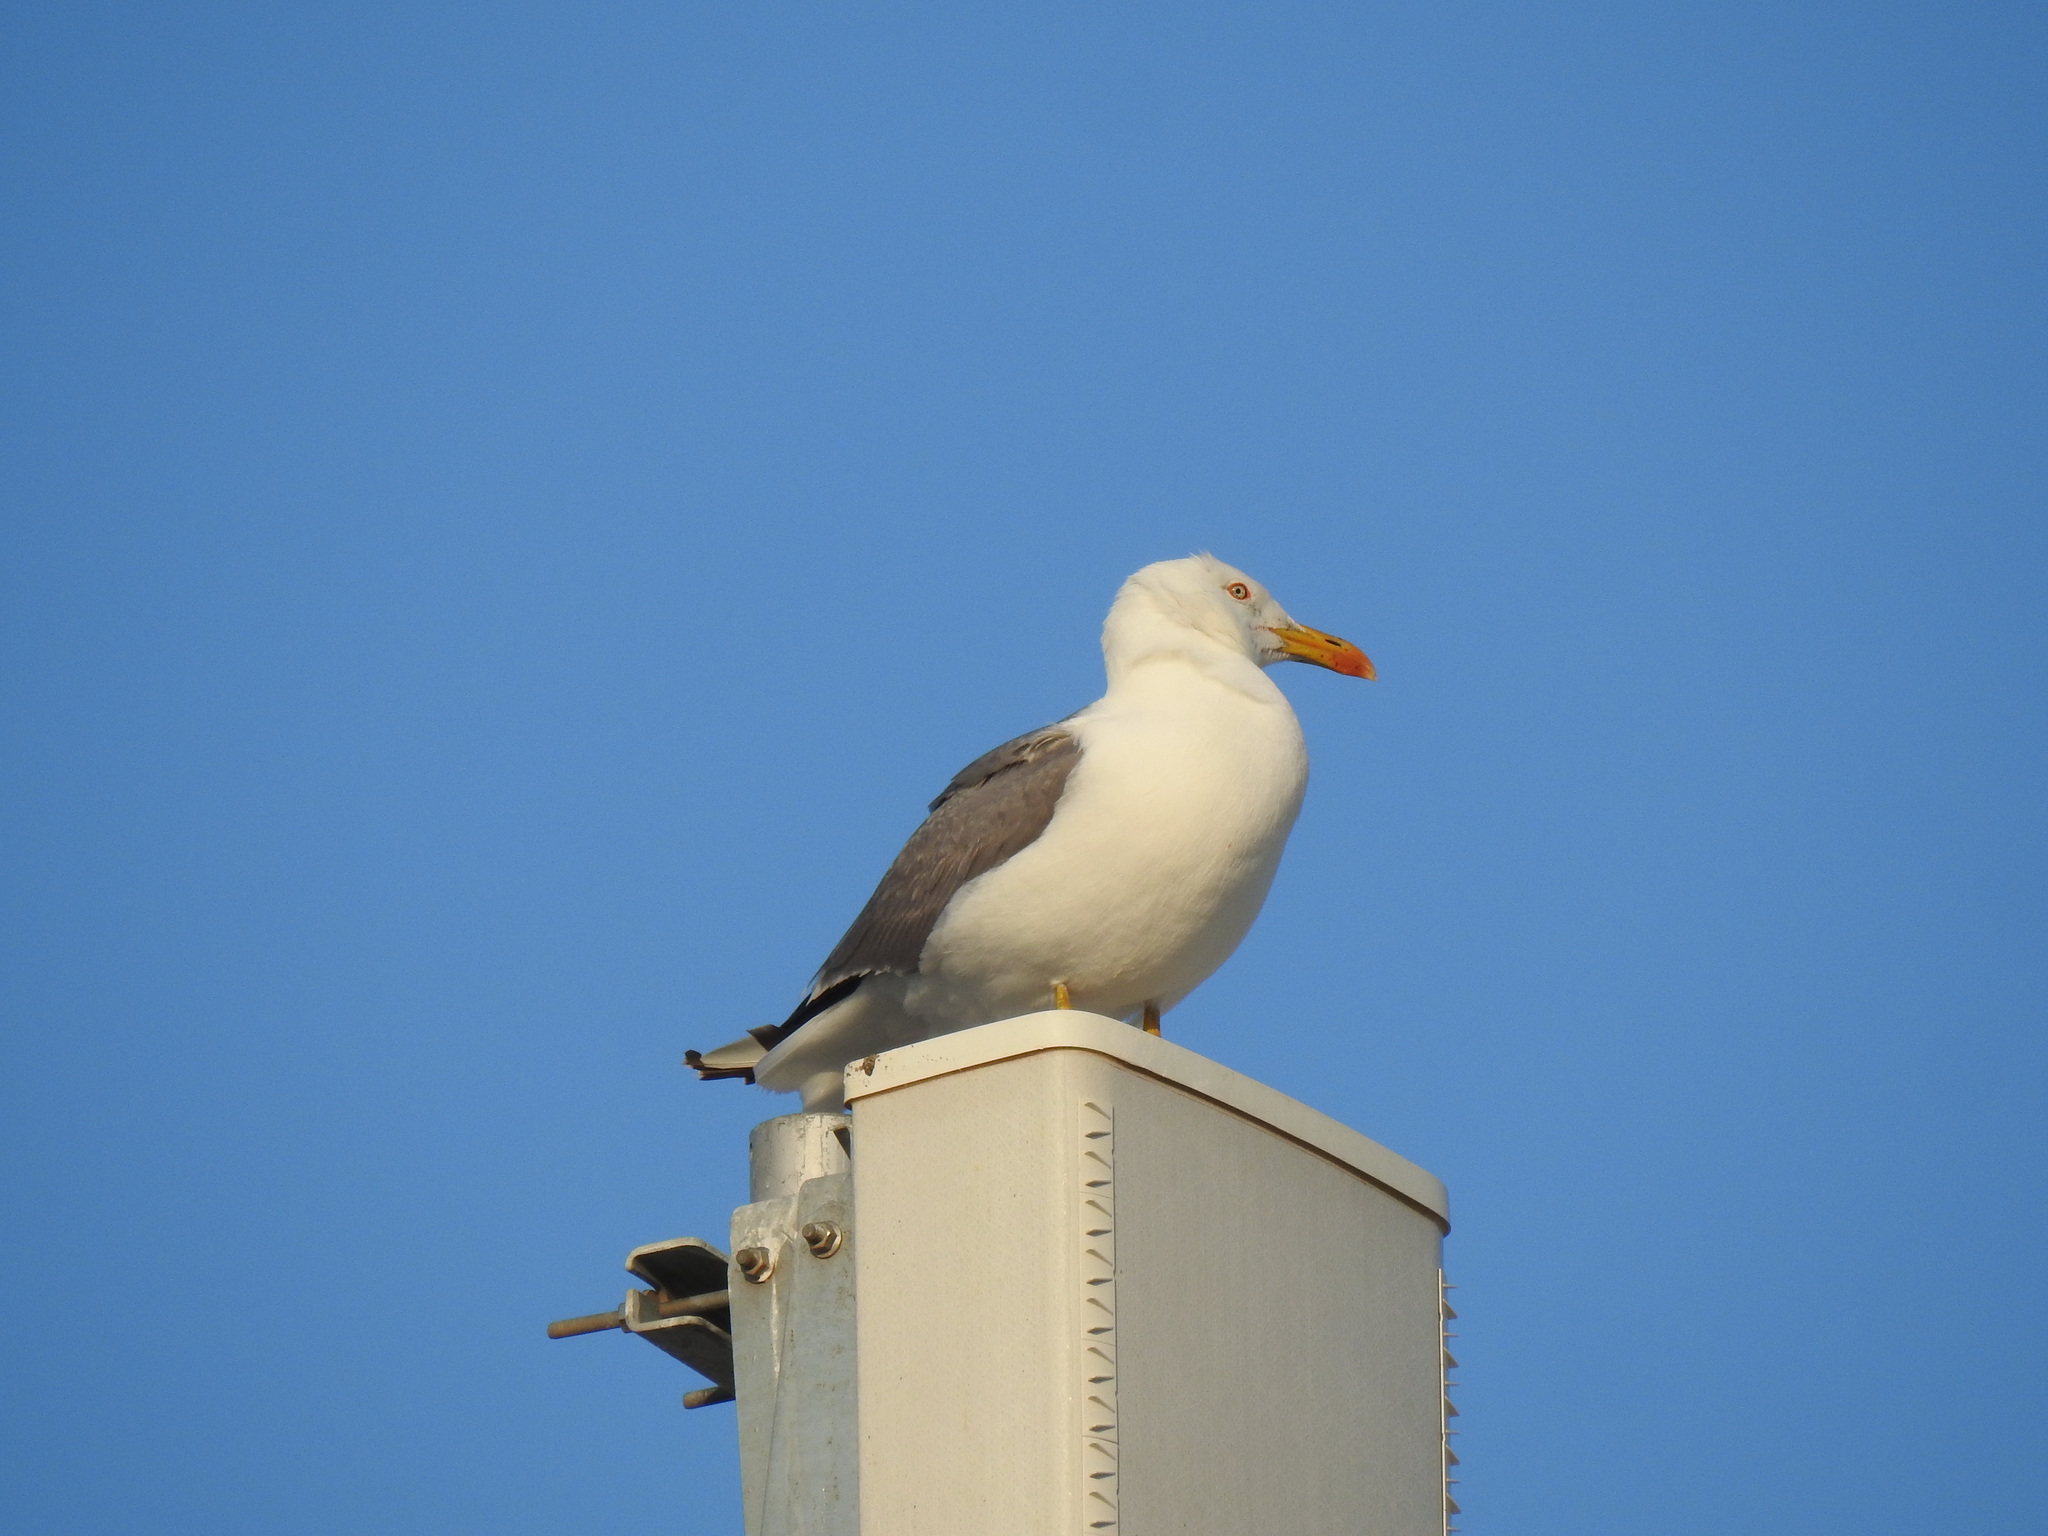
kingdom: Animalia
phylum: Chordata
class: Aves
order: Charadriiformes
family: Laridae
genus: Larus
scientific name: Larus michahellis
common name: Yellow-legged gull
